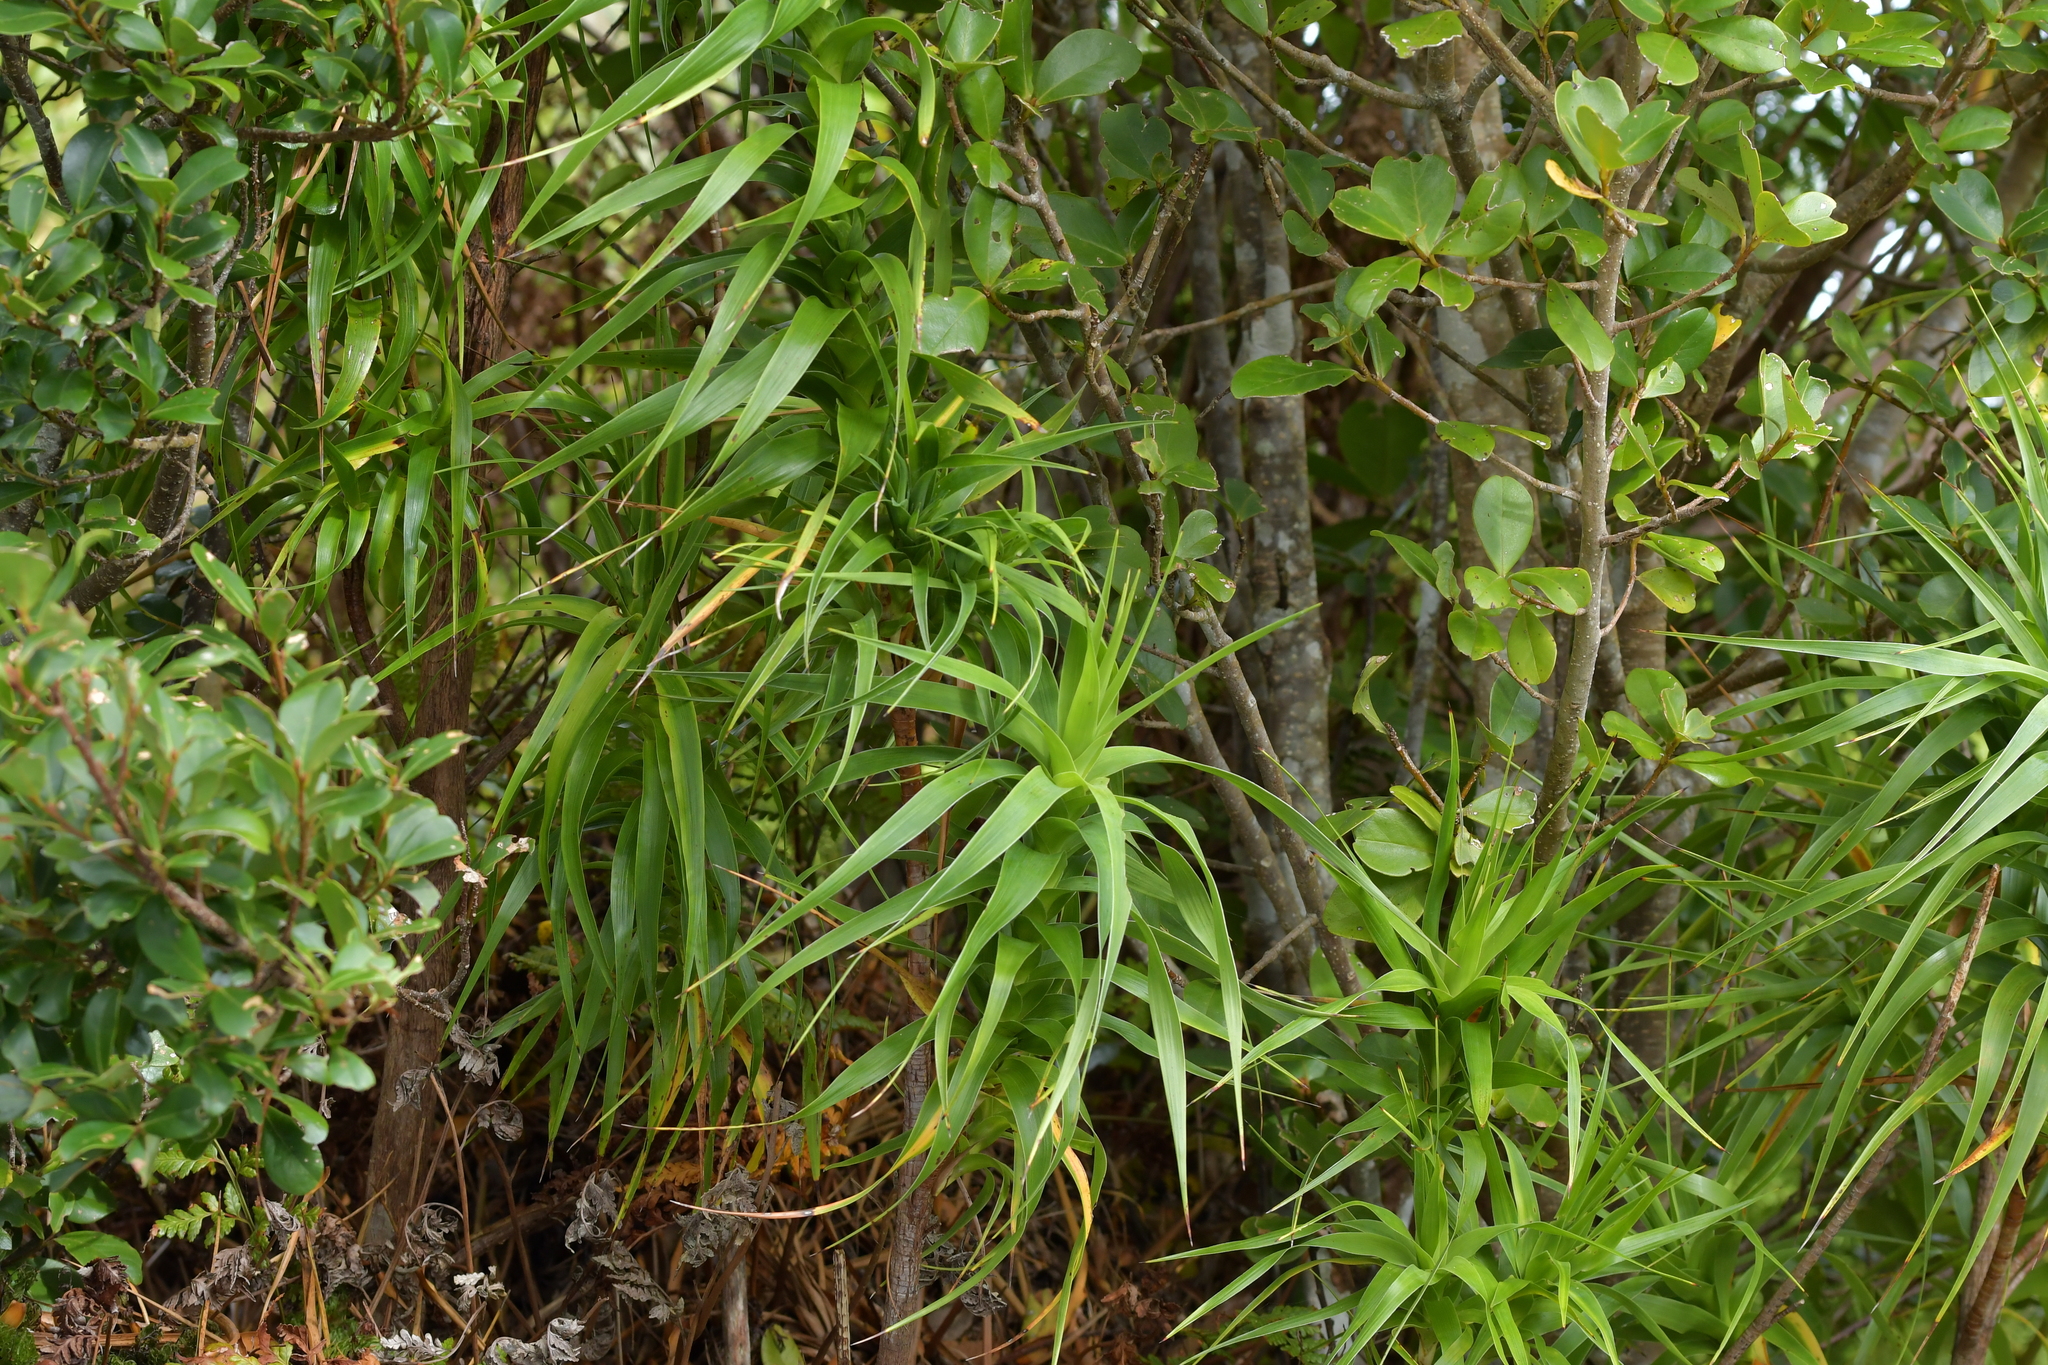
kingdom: Plantae
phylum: Tracheophyta
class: Magnoliopsida
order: Ericales
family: Ericaceae
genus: Dracophyllum
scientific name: Dracophyllum arboreum
